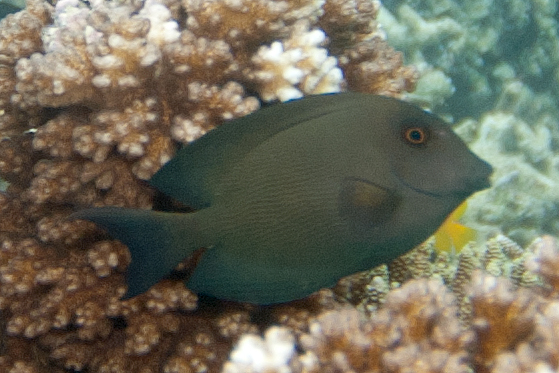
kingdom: Animalia
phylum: Chordata
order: Perciformes
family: Acanthuridae
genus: Ctenochaetus
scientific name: Ctenochaetus striatus
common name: Bristle-toothed surgeonfish
